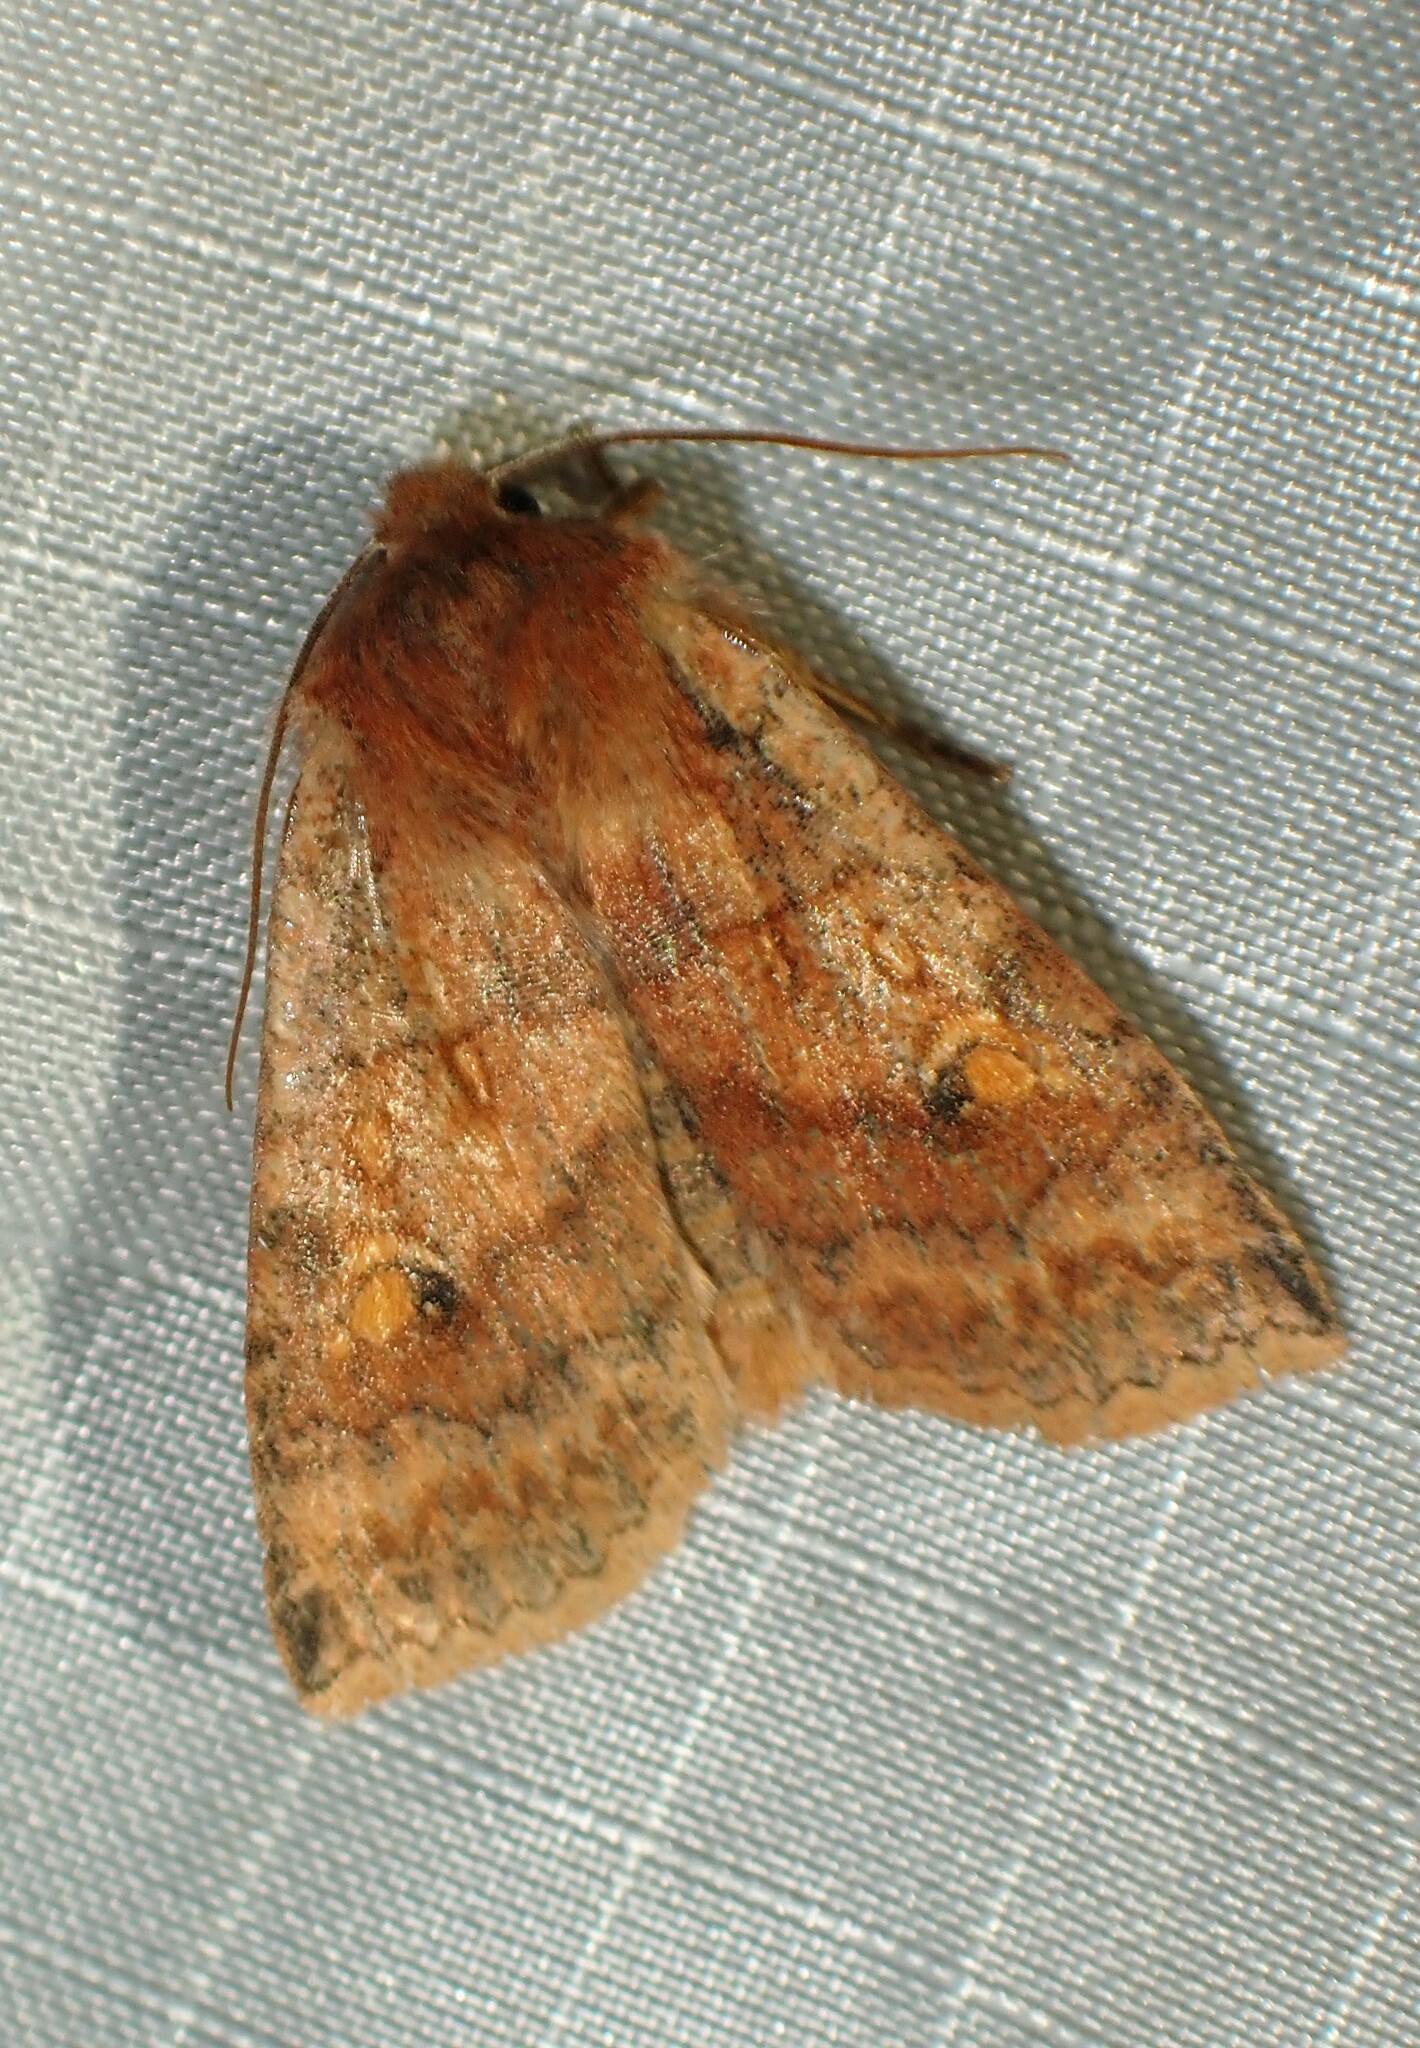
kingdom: Animalia
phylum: Arthropoda
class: Insecta
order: Lepidoptera
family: Noctuidae
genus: Eupsilia
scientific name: Eupsilia tristigmata
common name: Three-spotted sallow
